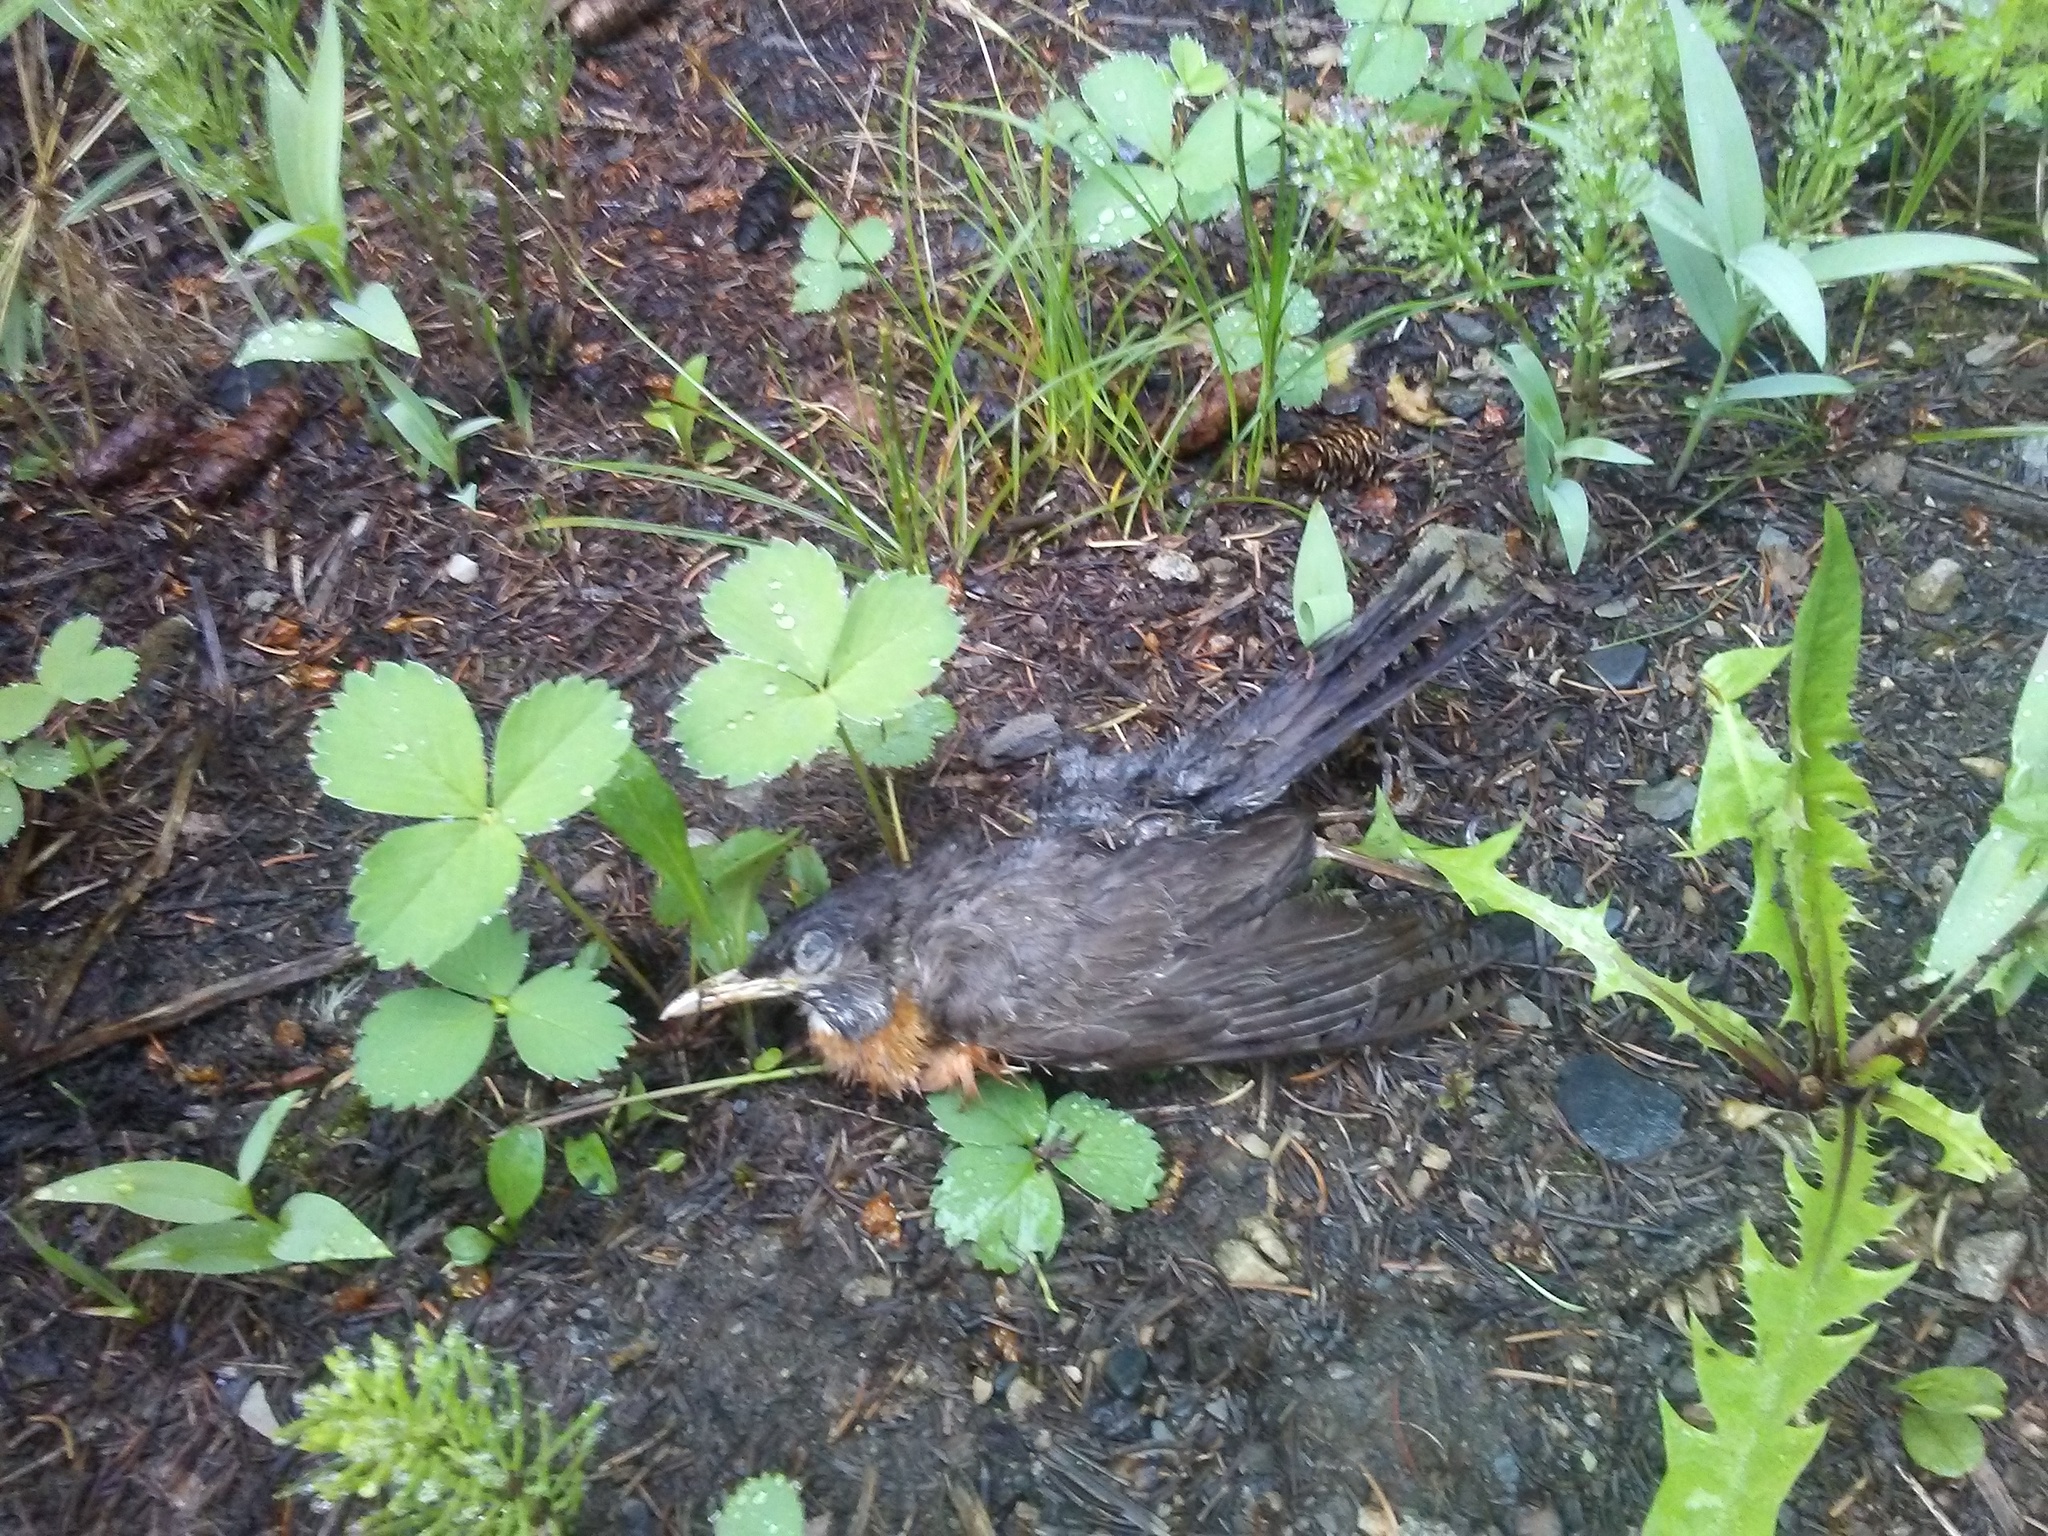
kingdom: Animalia
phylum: Chordata
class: Aves
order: Passeriformes
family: Turdidae
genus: Turdus
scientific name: Turdus migratorius
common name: American robin
